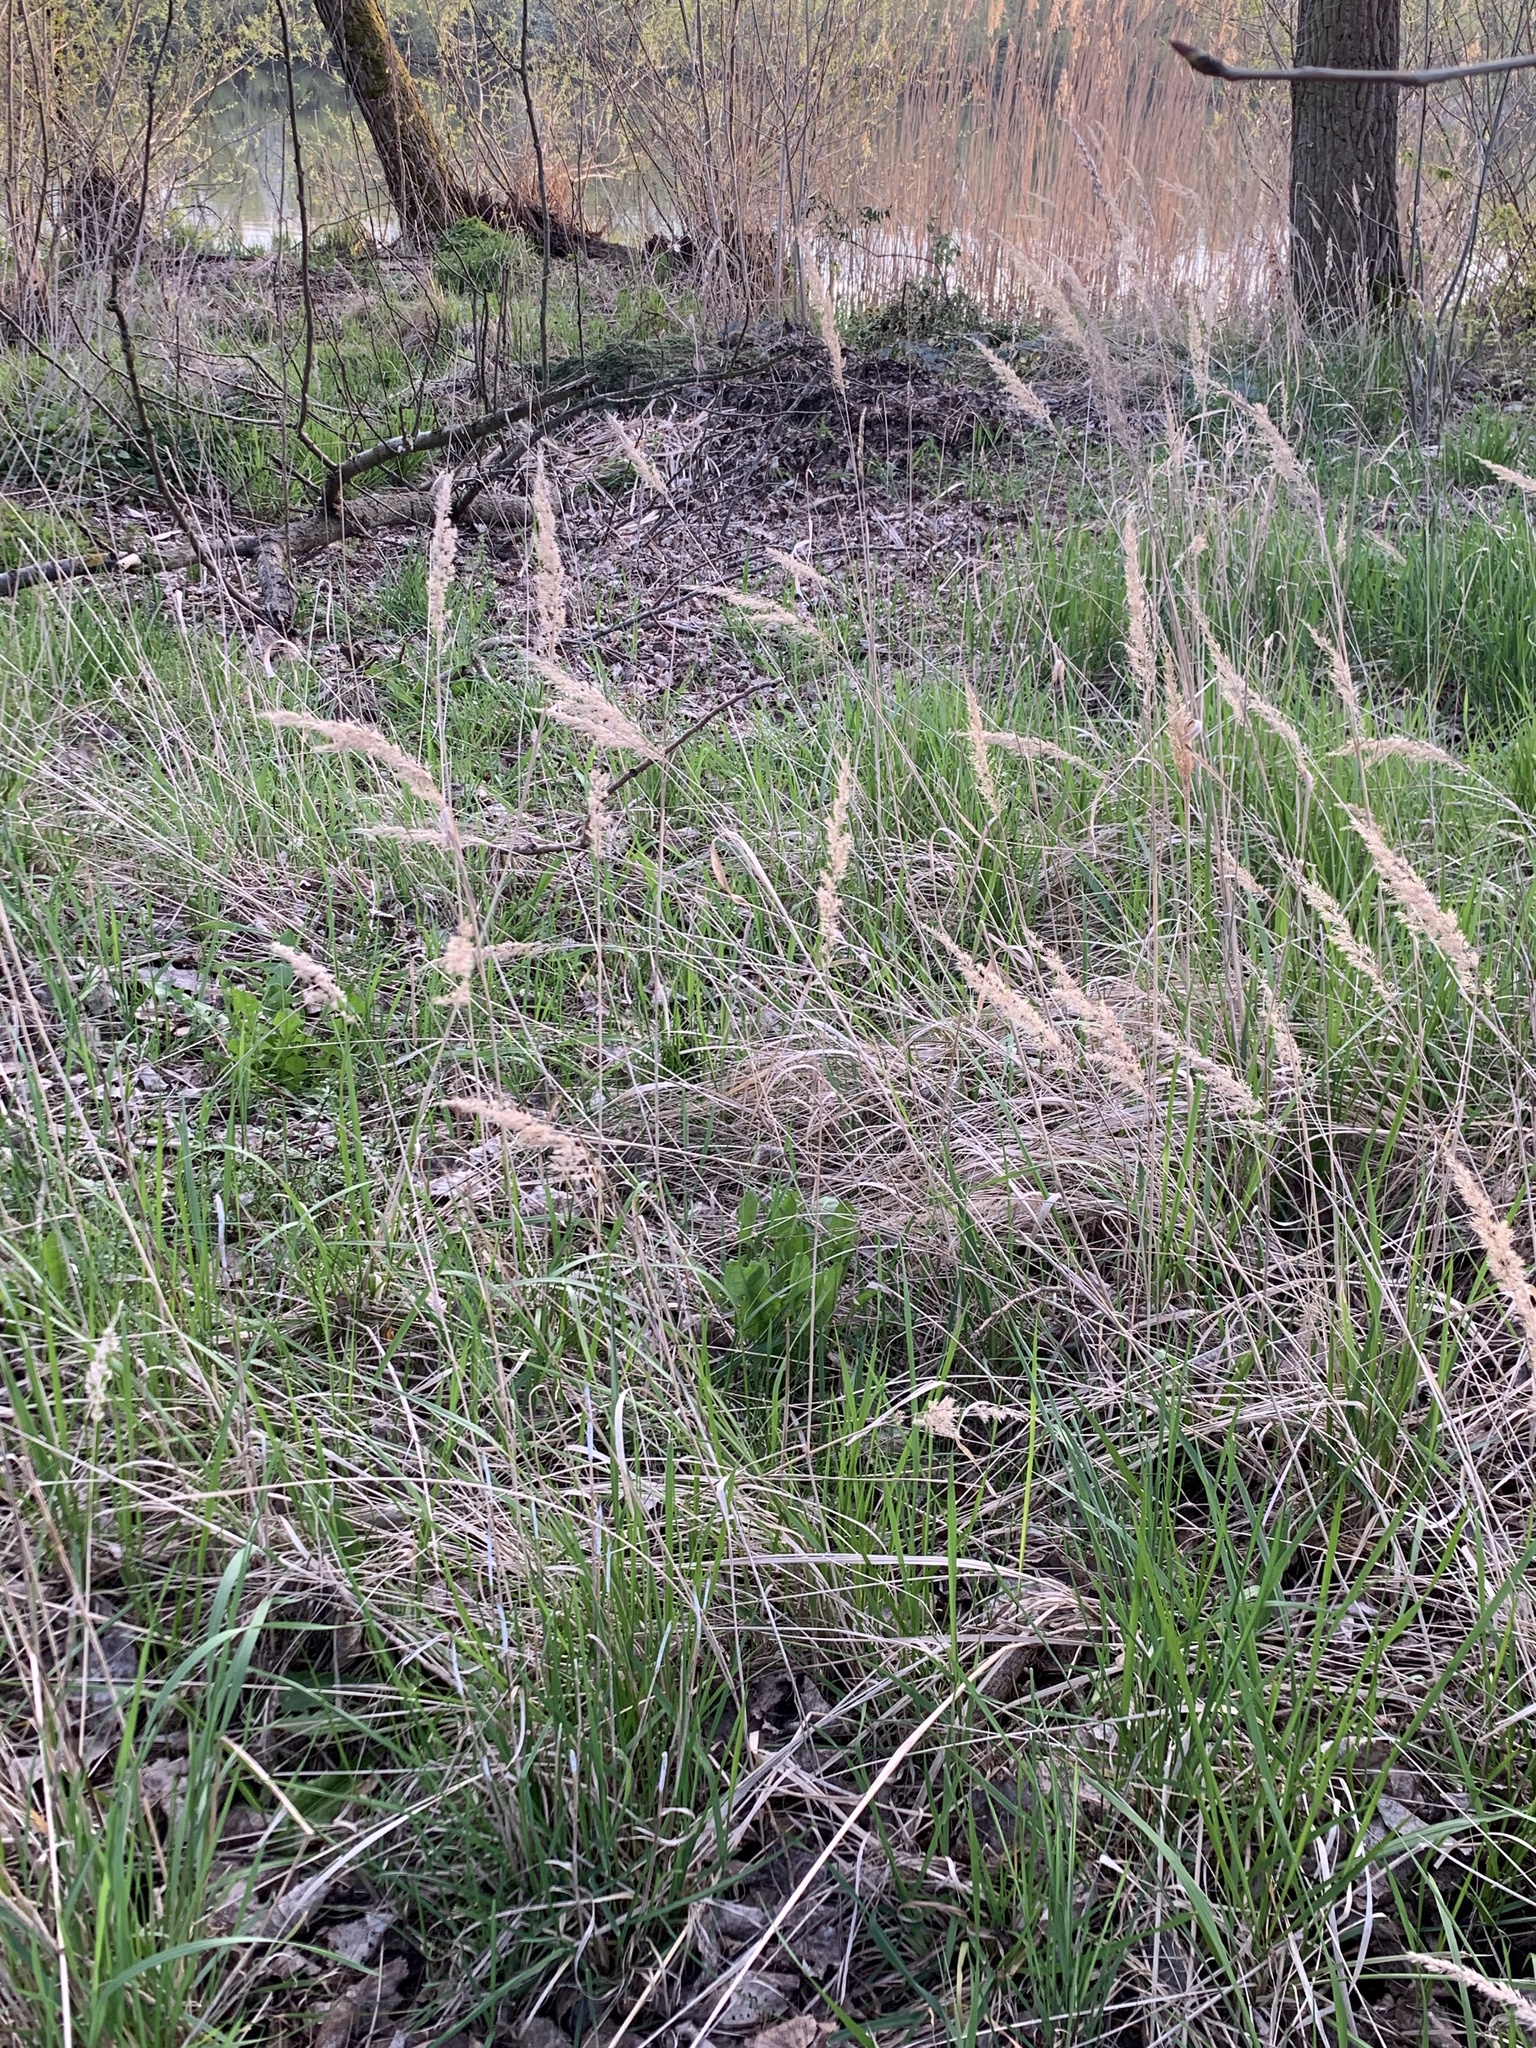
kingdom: Plantae
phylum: Tracheophyta
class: Liliopsida
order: Poales
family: Poaceae
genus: Calamagrostis
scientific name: Calamagrostis epigejos
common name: Wood small-reed
